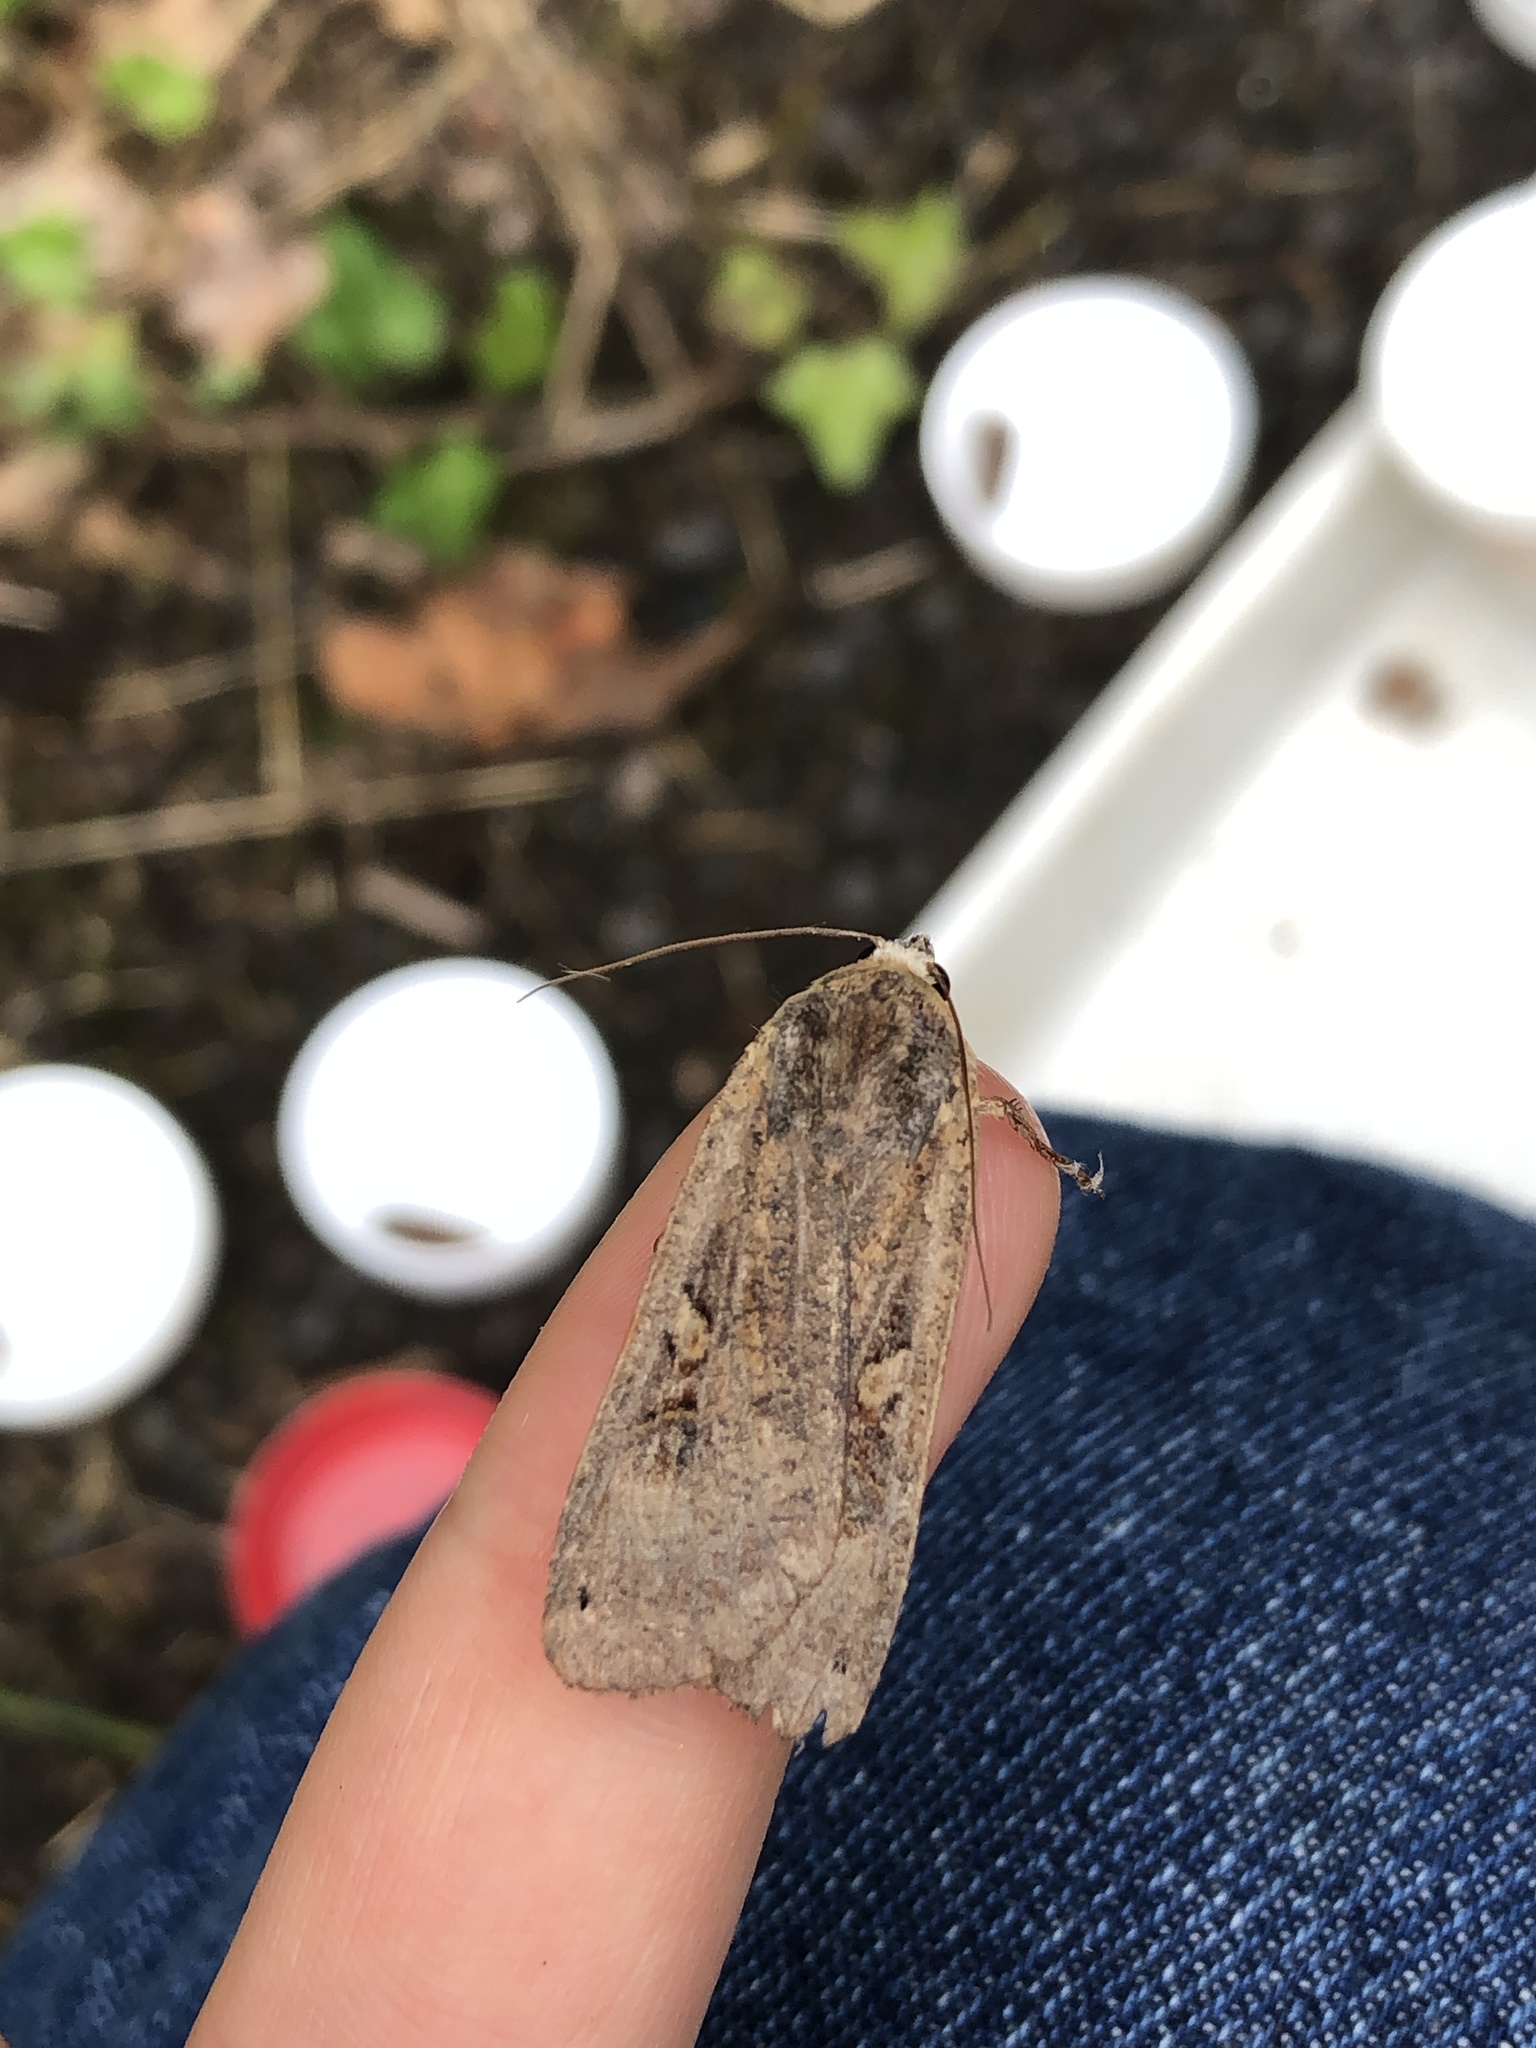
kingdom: Animalia
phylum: Arthropoda
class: Insecta
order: Lepidoptera
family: Noctuidae
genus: Noctua
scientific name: Noctua pronuba
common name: Large yellow underwing
